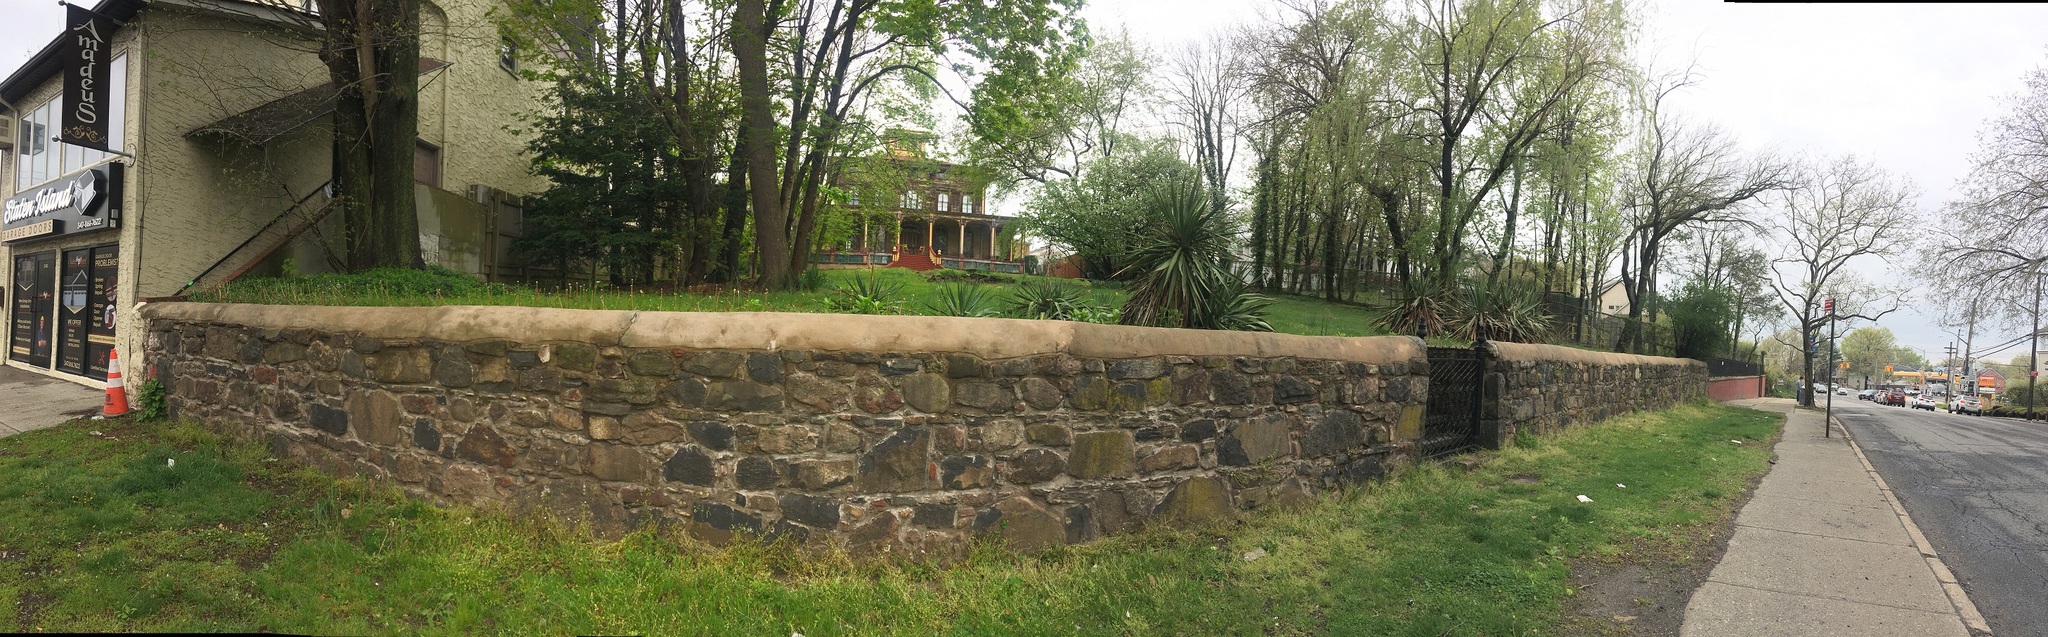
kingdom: Plantae
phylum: Tracheophyta
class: Magnoliopsida
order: Lamiales
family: Lamiaceae
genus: Lamium
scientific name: Lamium amplexicaule
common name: Henbit dead-nettle
